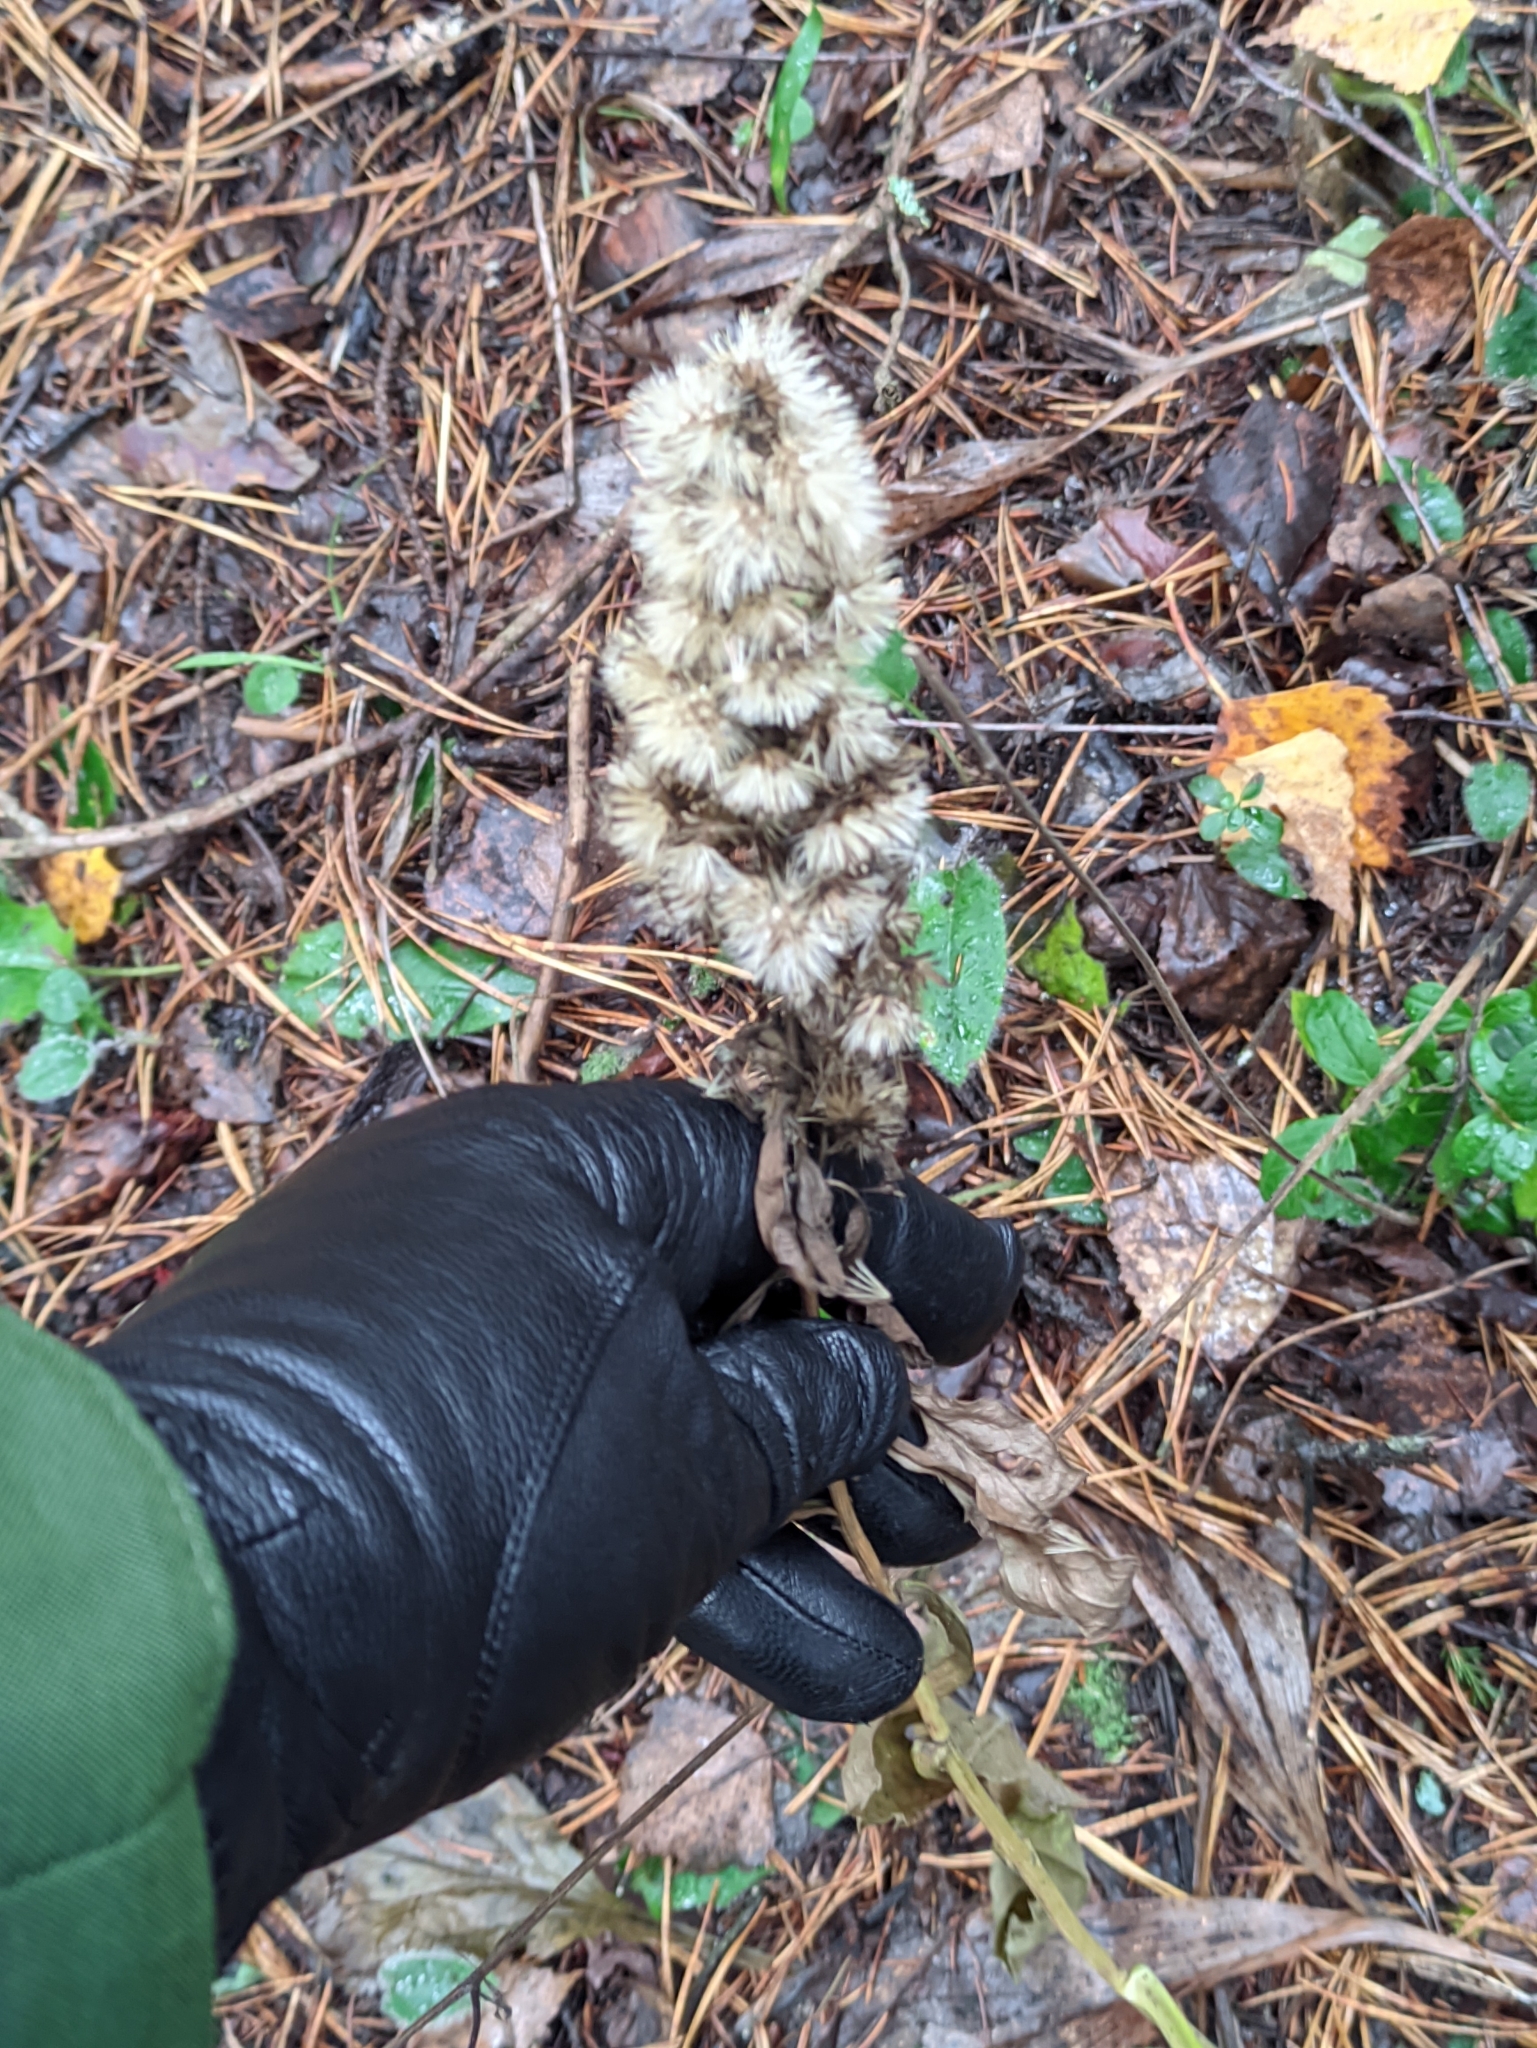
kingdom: Plantae
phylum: Tracheophyta
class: Magnoliopsida
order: Asterales
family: Asteraceae
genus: Solidago
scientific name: Solidago virgaurea
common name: Goldenrod
